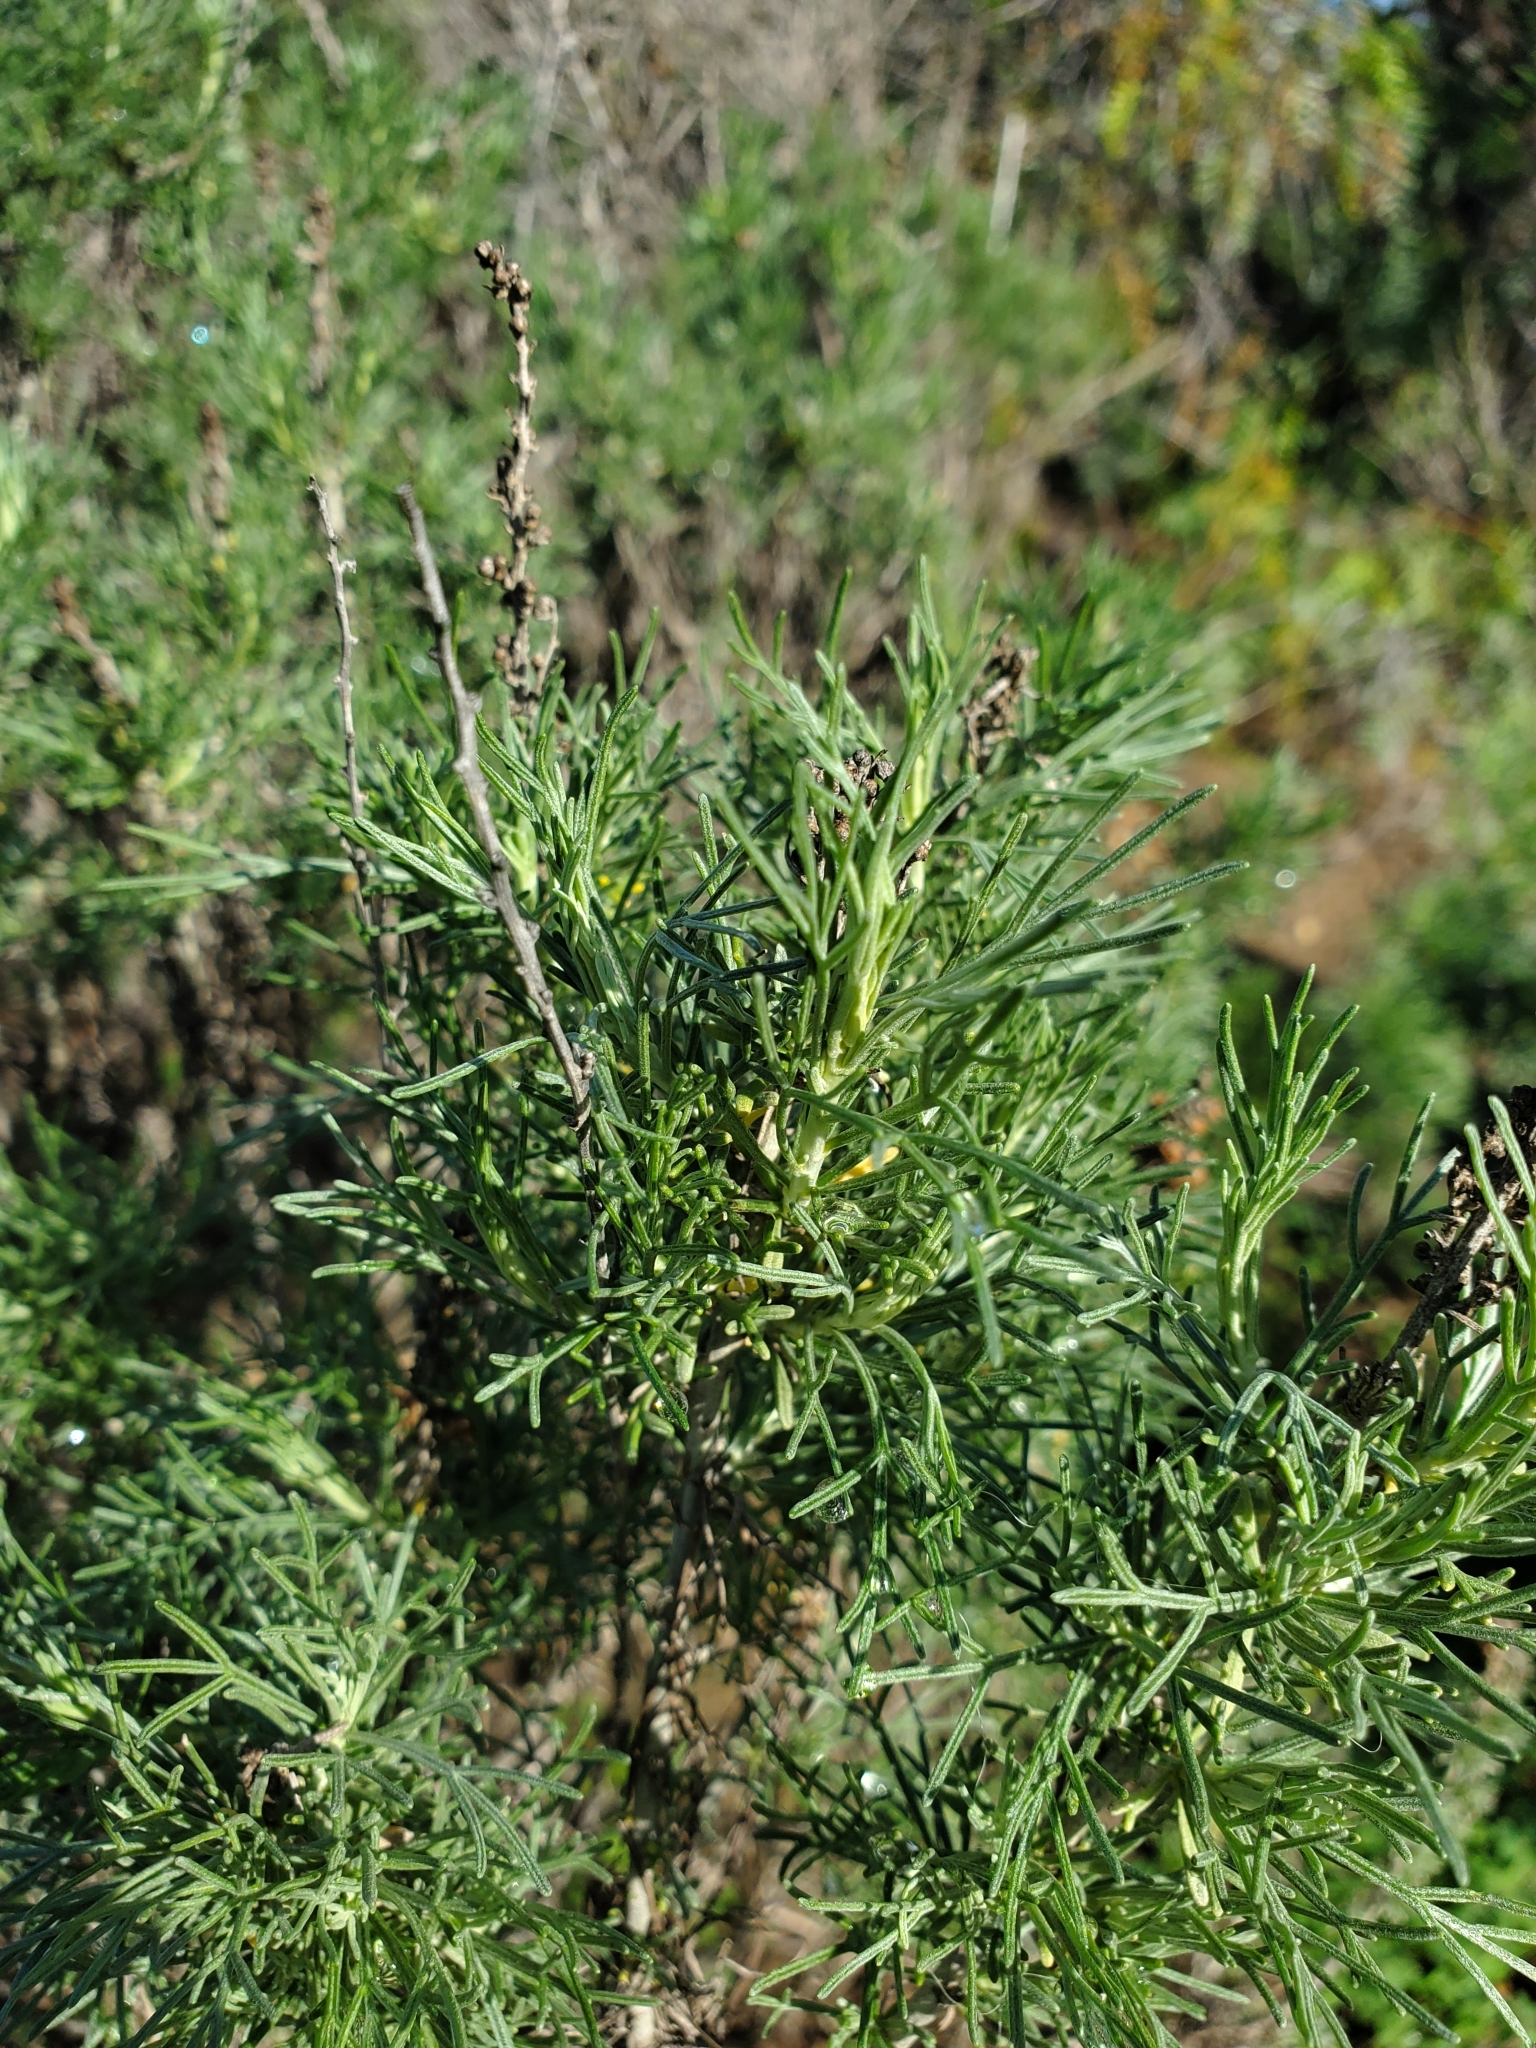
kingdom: Plantae
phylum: Tracheophyta
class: Magnoliopsida
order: Asterales
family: Asteraceae
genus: Artemisia
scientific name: Artemisia californica
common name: California sagebrush
